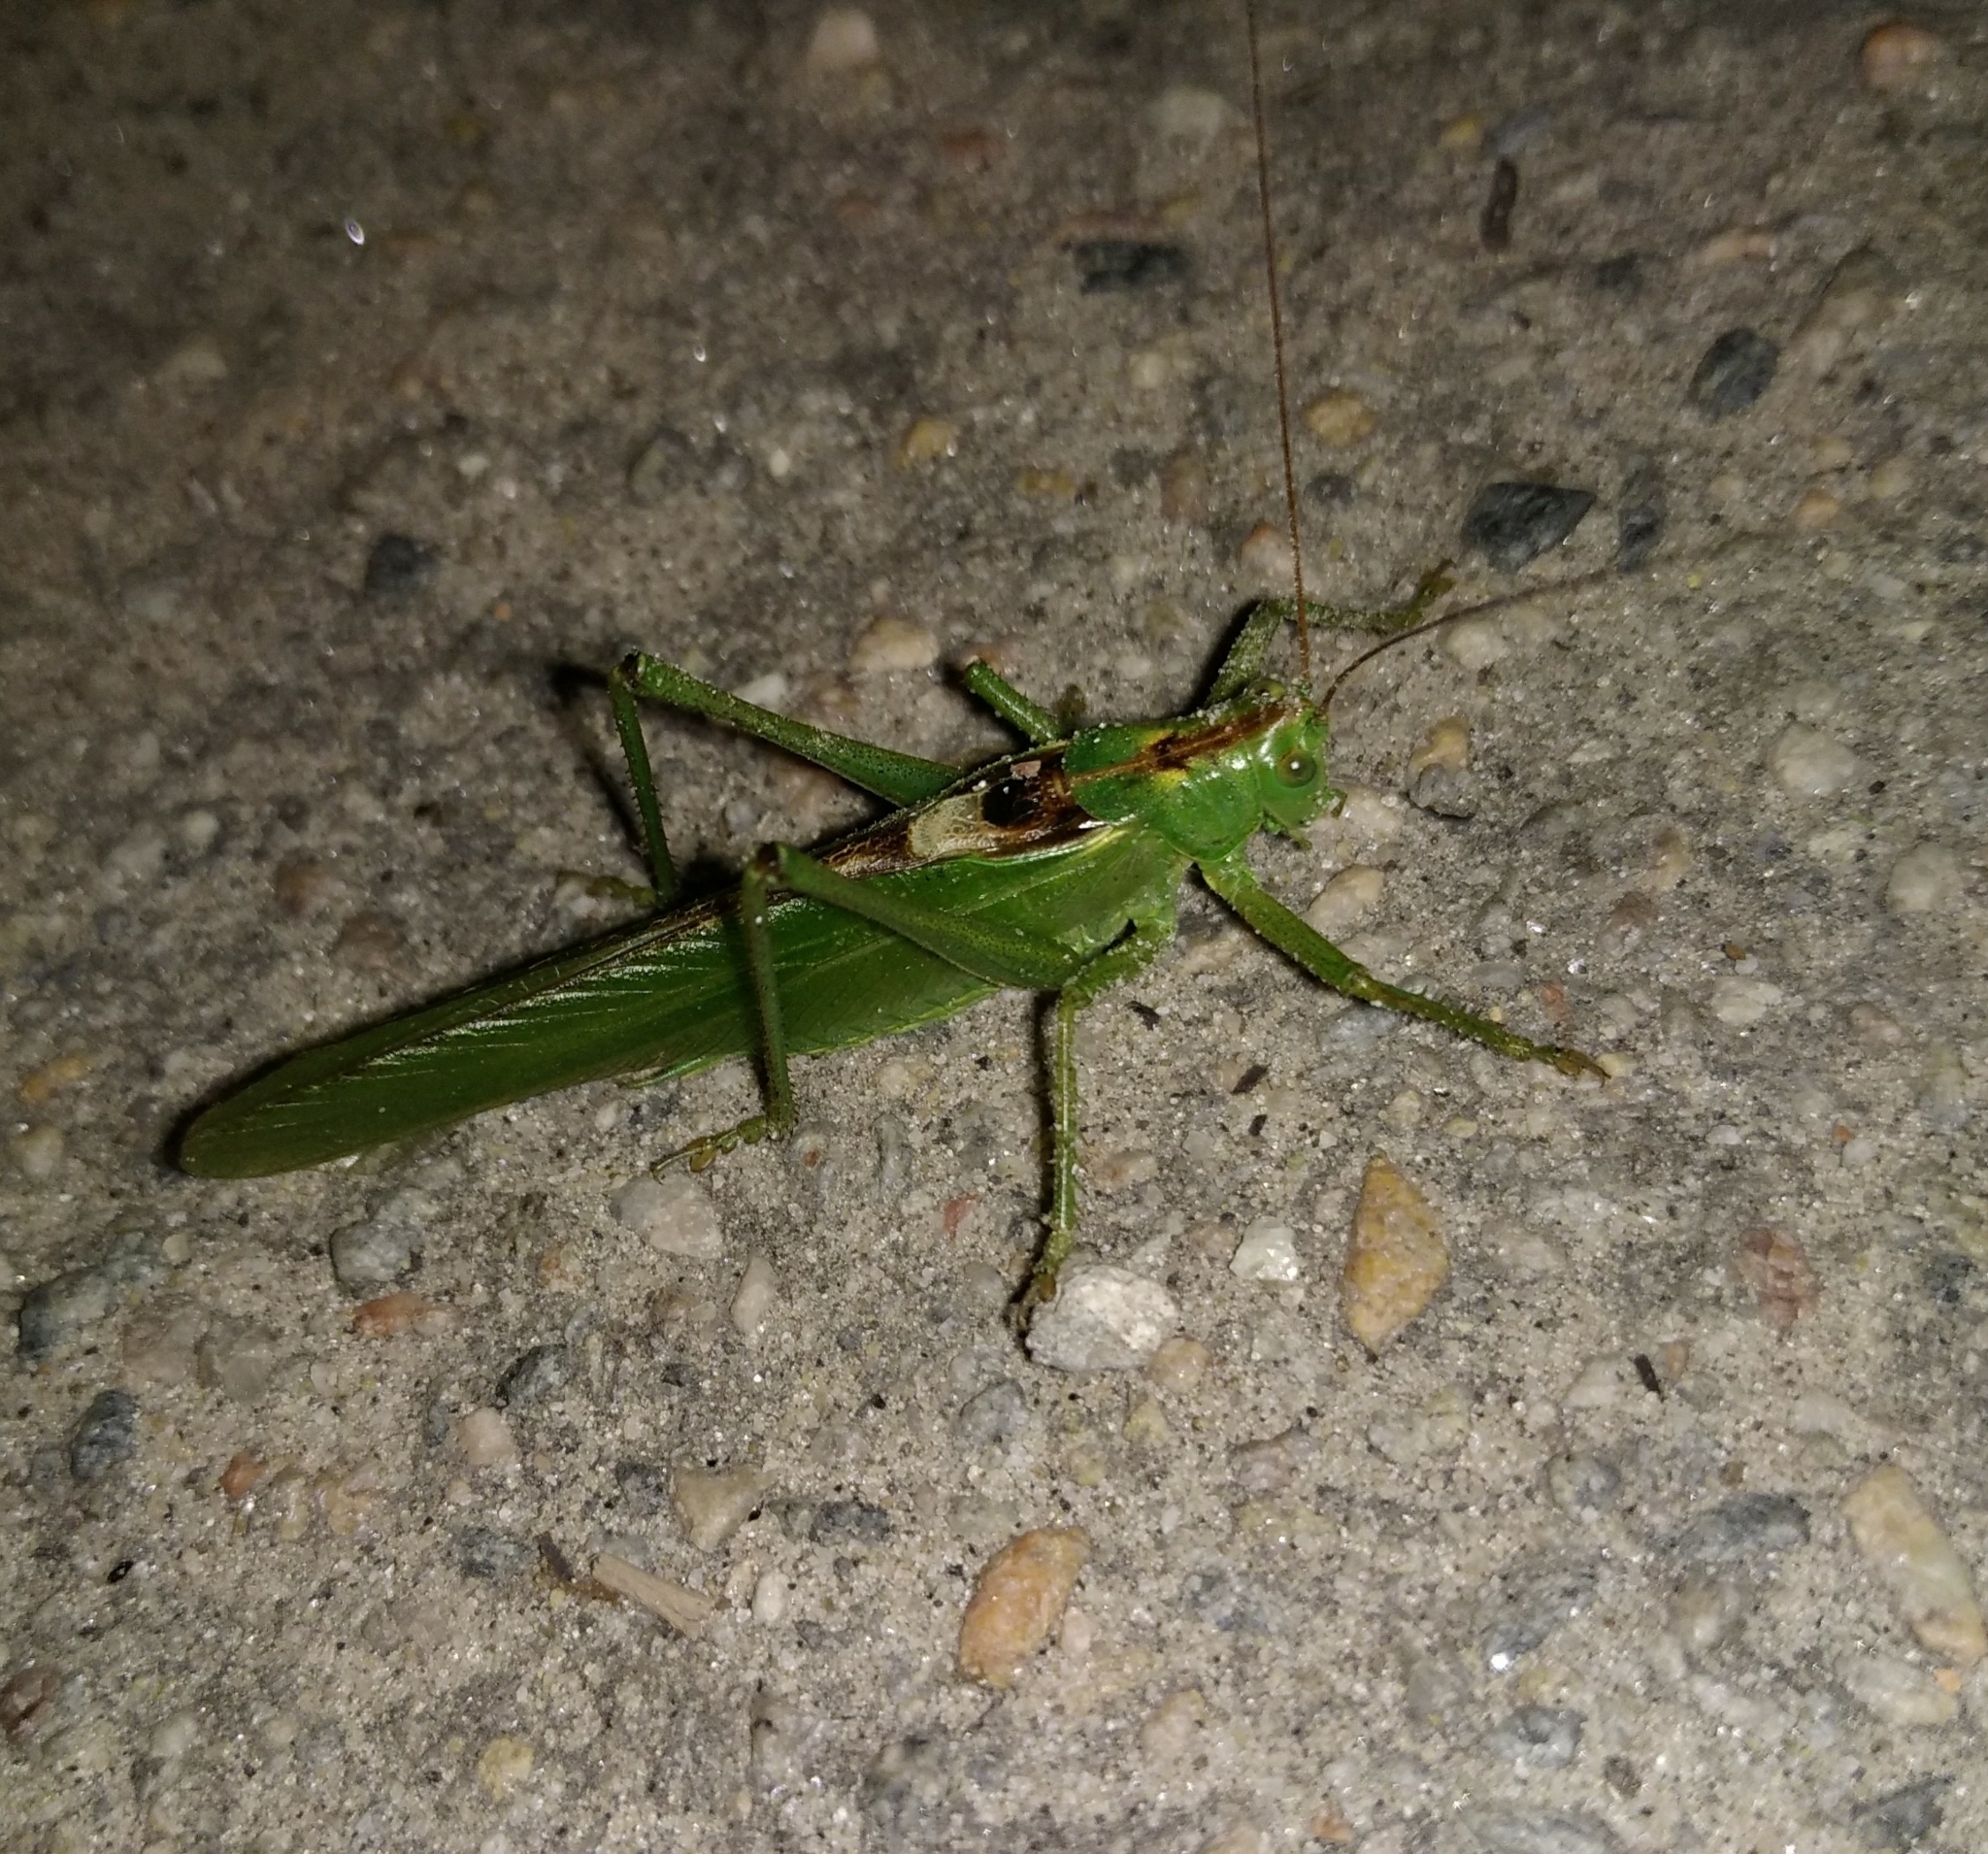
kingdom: Animalia
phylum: Arthropoda
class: Insecta
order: Orthoptera
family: Tettigoniidae
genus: Tettigonia
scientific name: Tettigonia viridissima
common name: Great green bush-cricket
